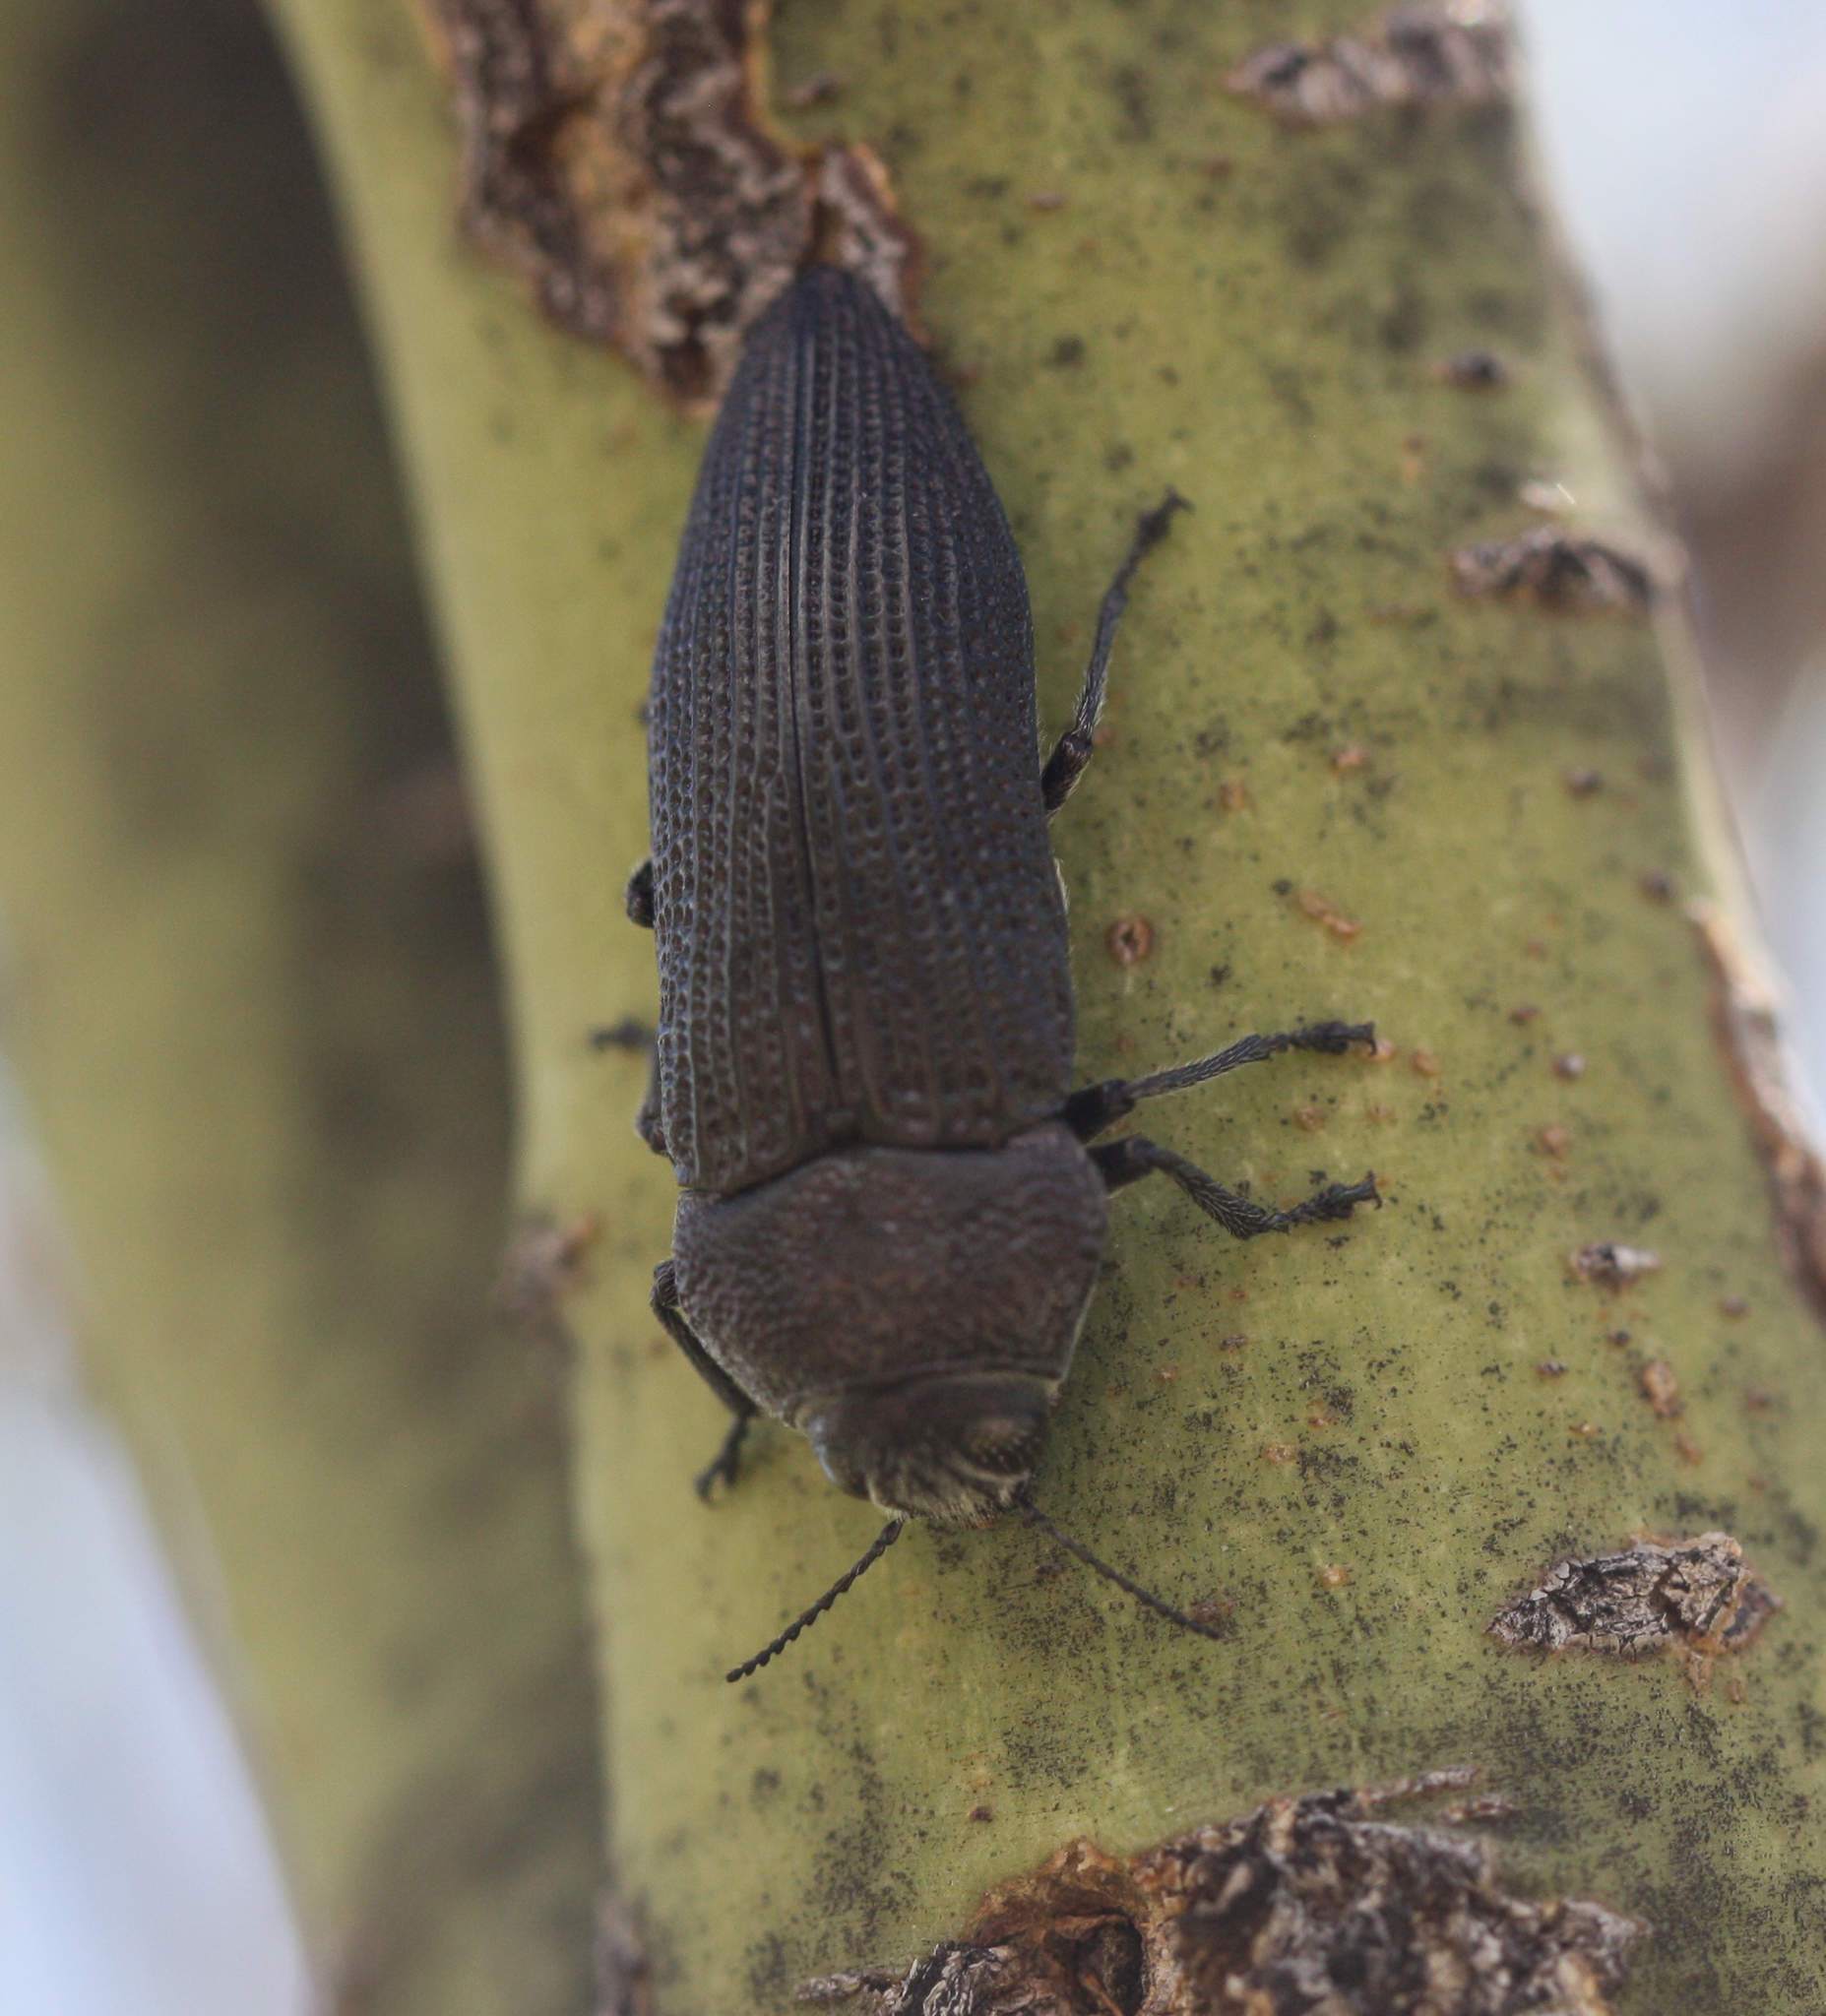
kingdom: Animalia
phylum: Arthropoda
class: Insecta
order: Coleoptera
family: Buprestidae
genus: Polycesta
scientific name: Polycesta aruensis
